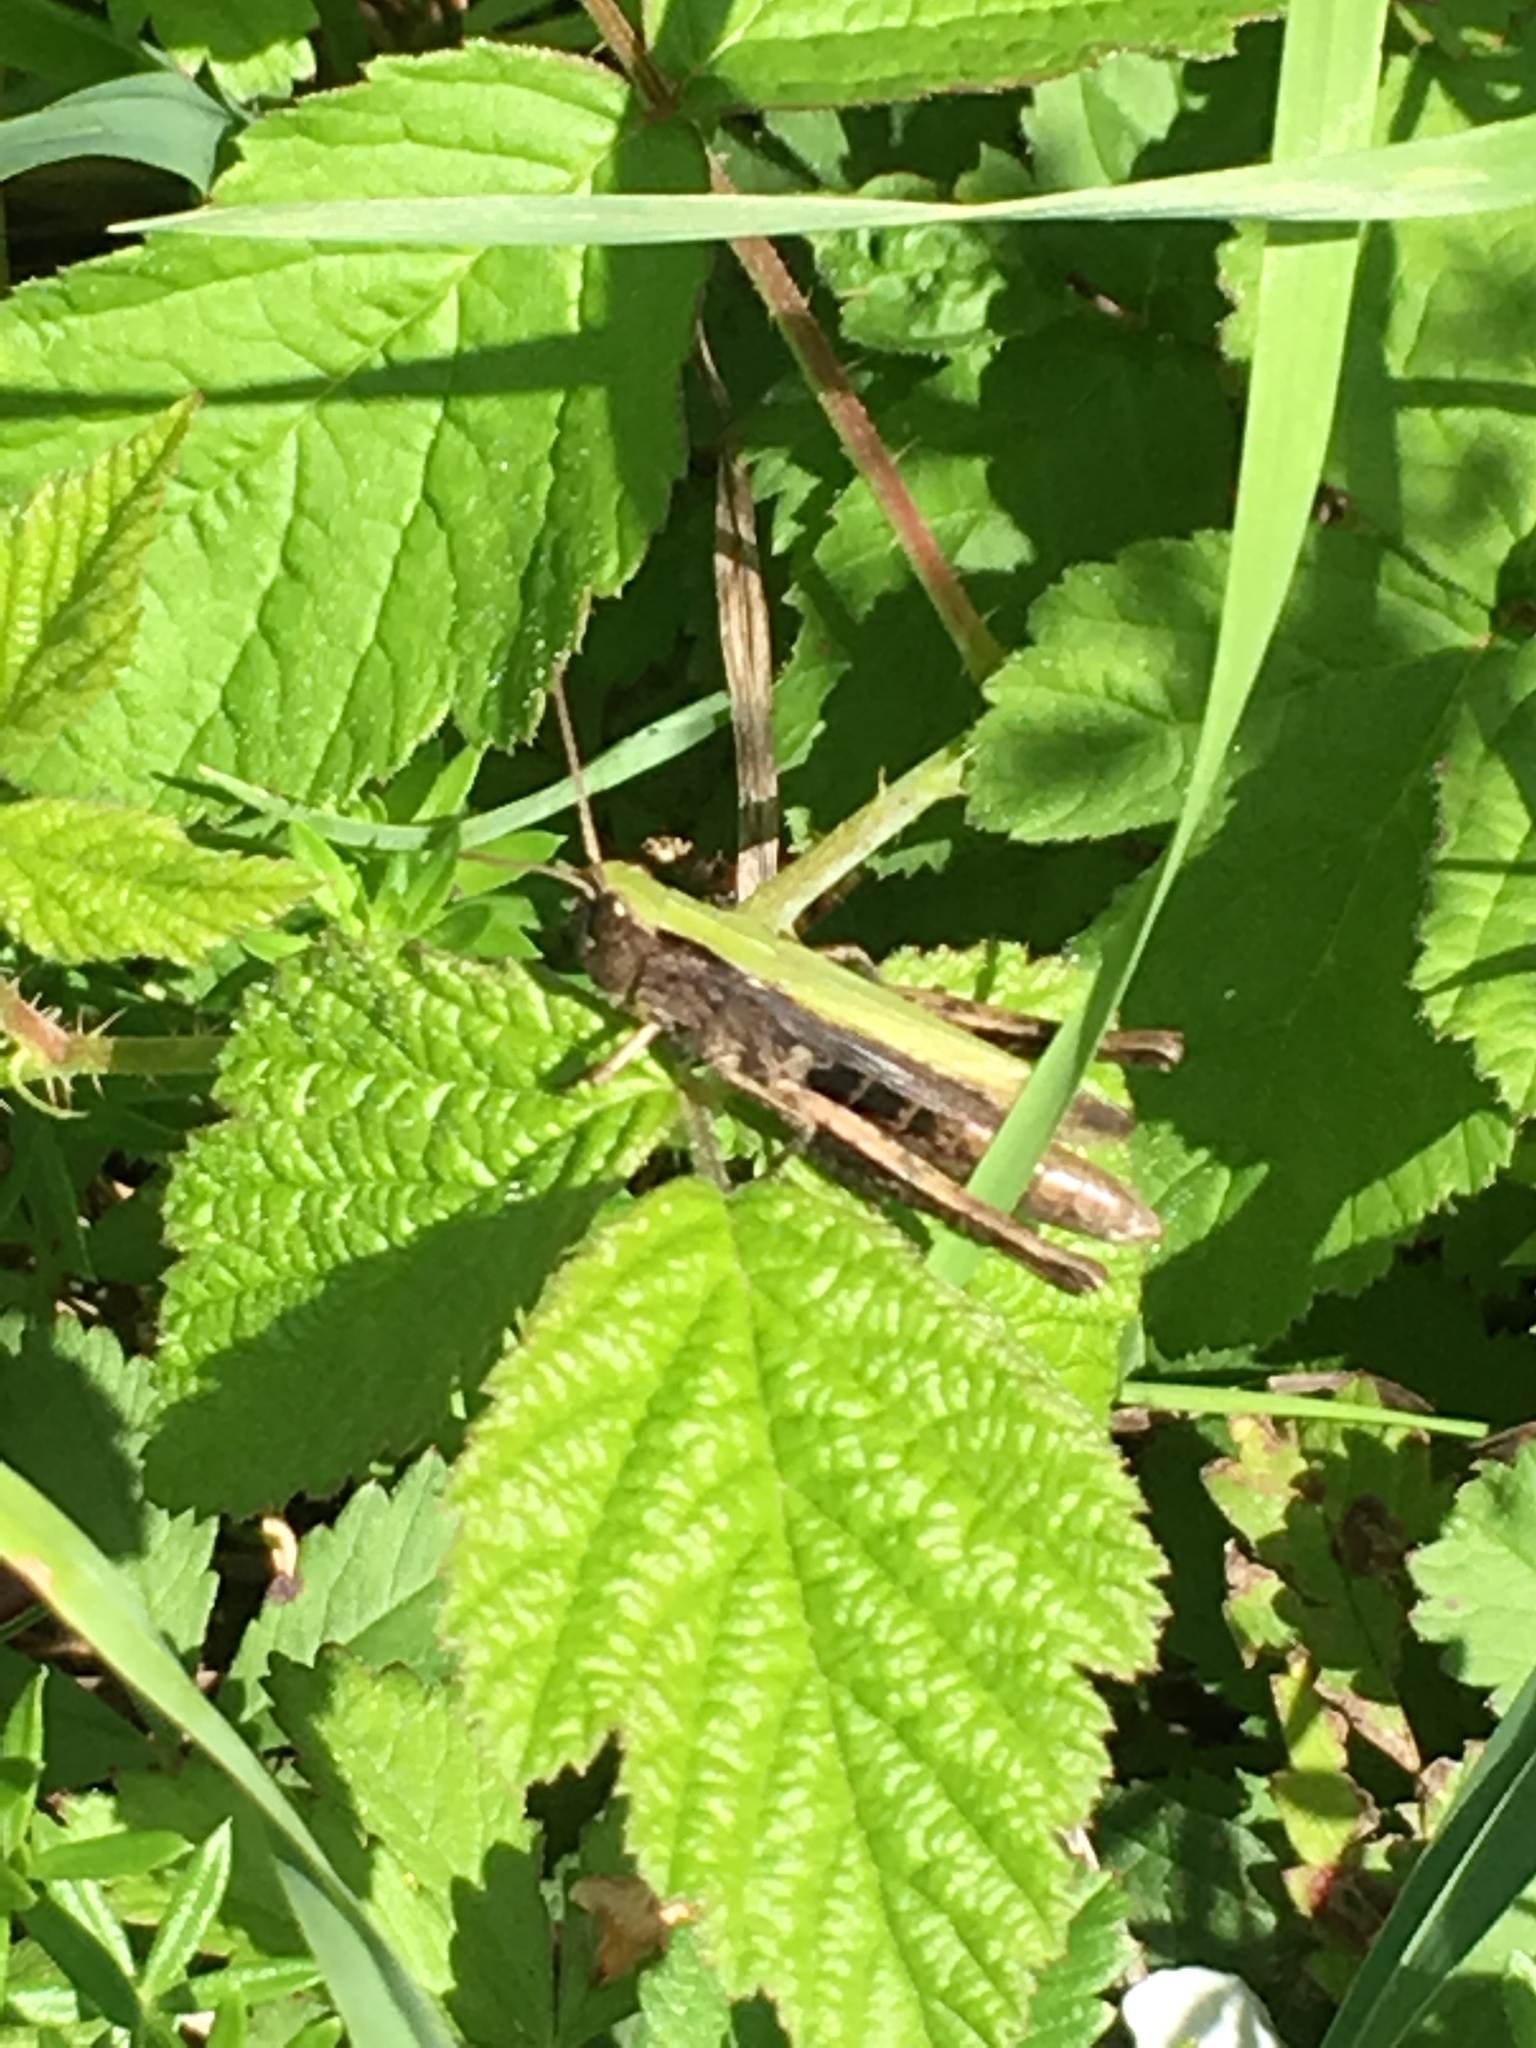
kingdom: Animalia
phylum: Arthropoda
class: Insecta
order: Orthoptera
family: Acrididae
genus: Chorthippus
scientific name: Chorthippus dorsatus
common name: Steppe grasshopper
